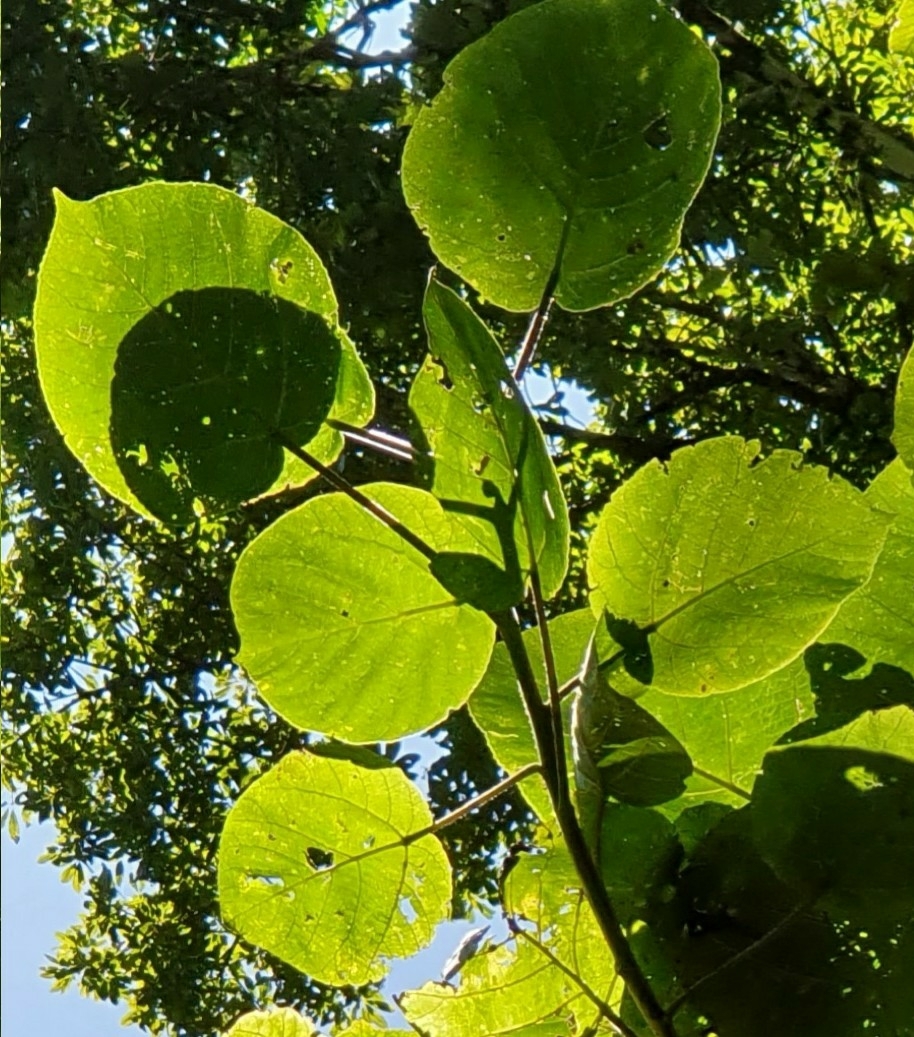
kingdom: Plantae
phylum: Tracheophyta
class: Magnoliopsida
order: Rosales
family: Urticaceae
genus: Dendrocnide
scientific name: Dendrocnide excelsa
